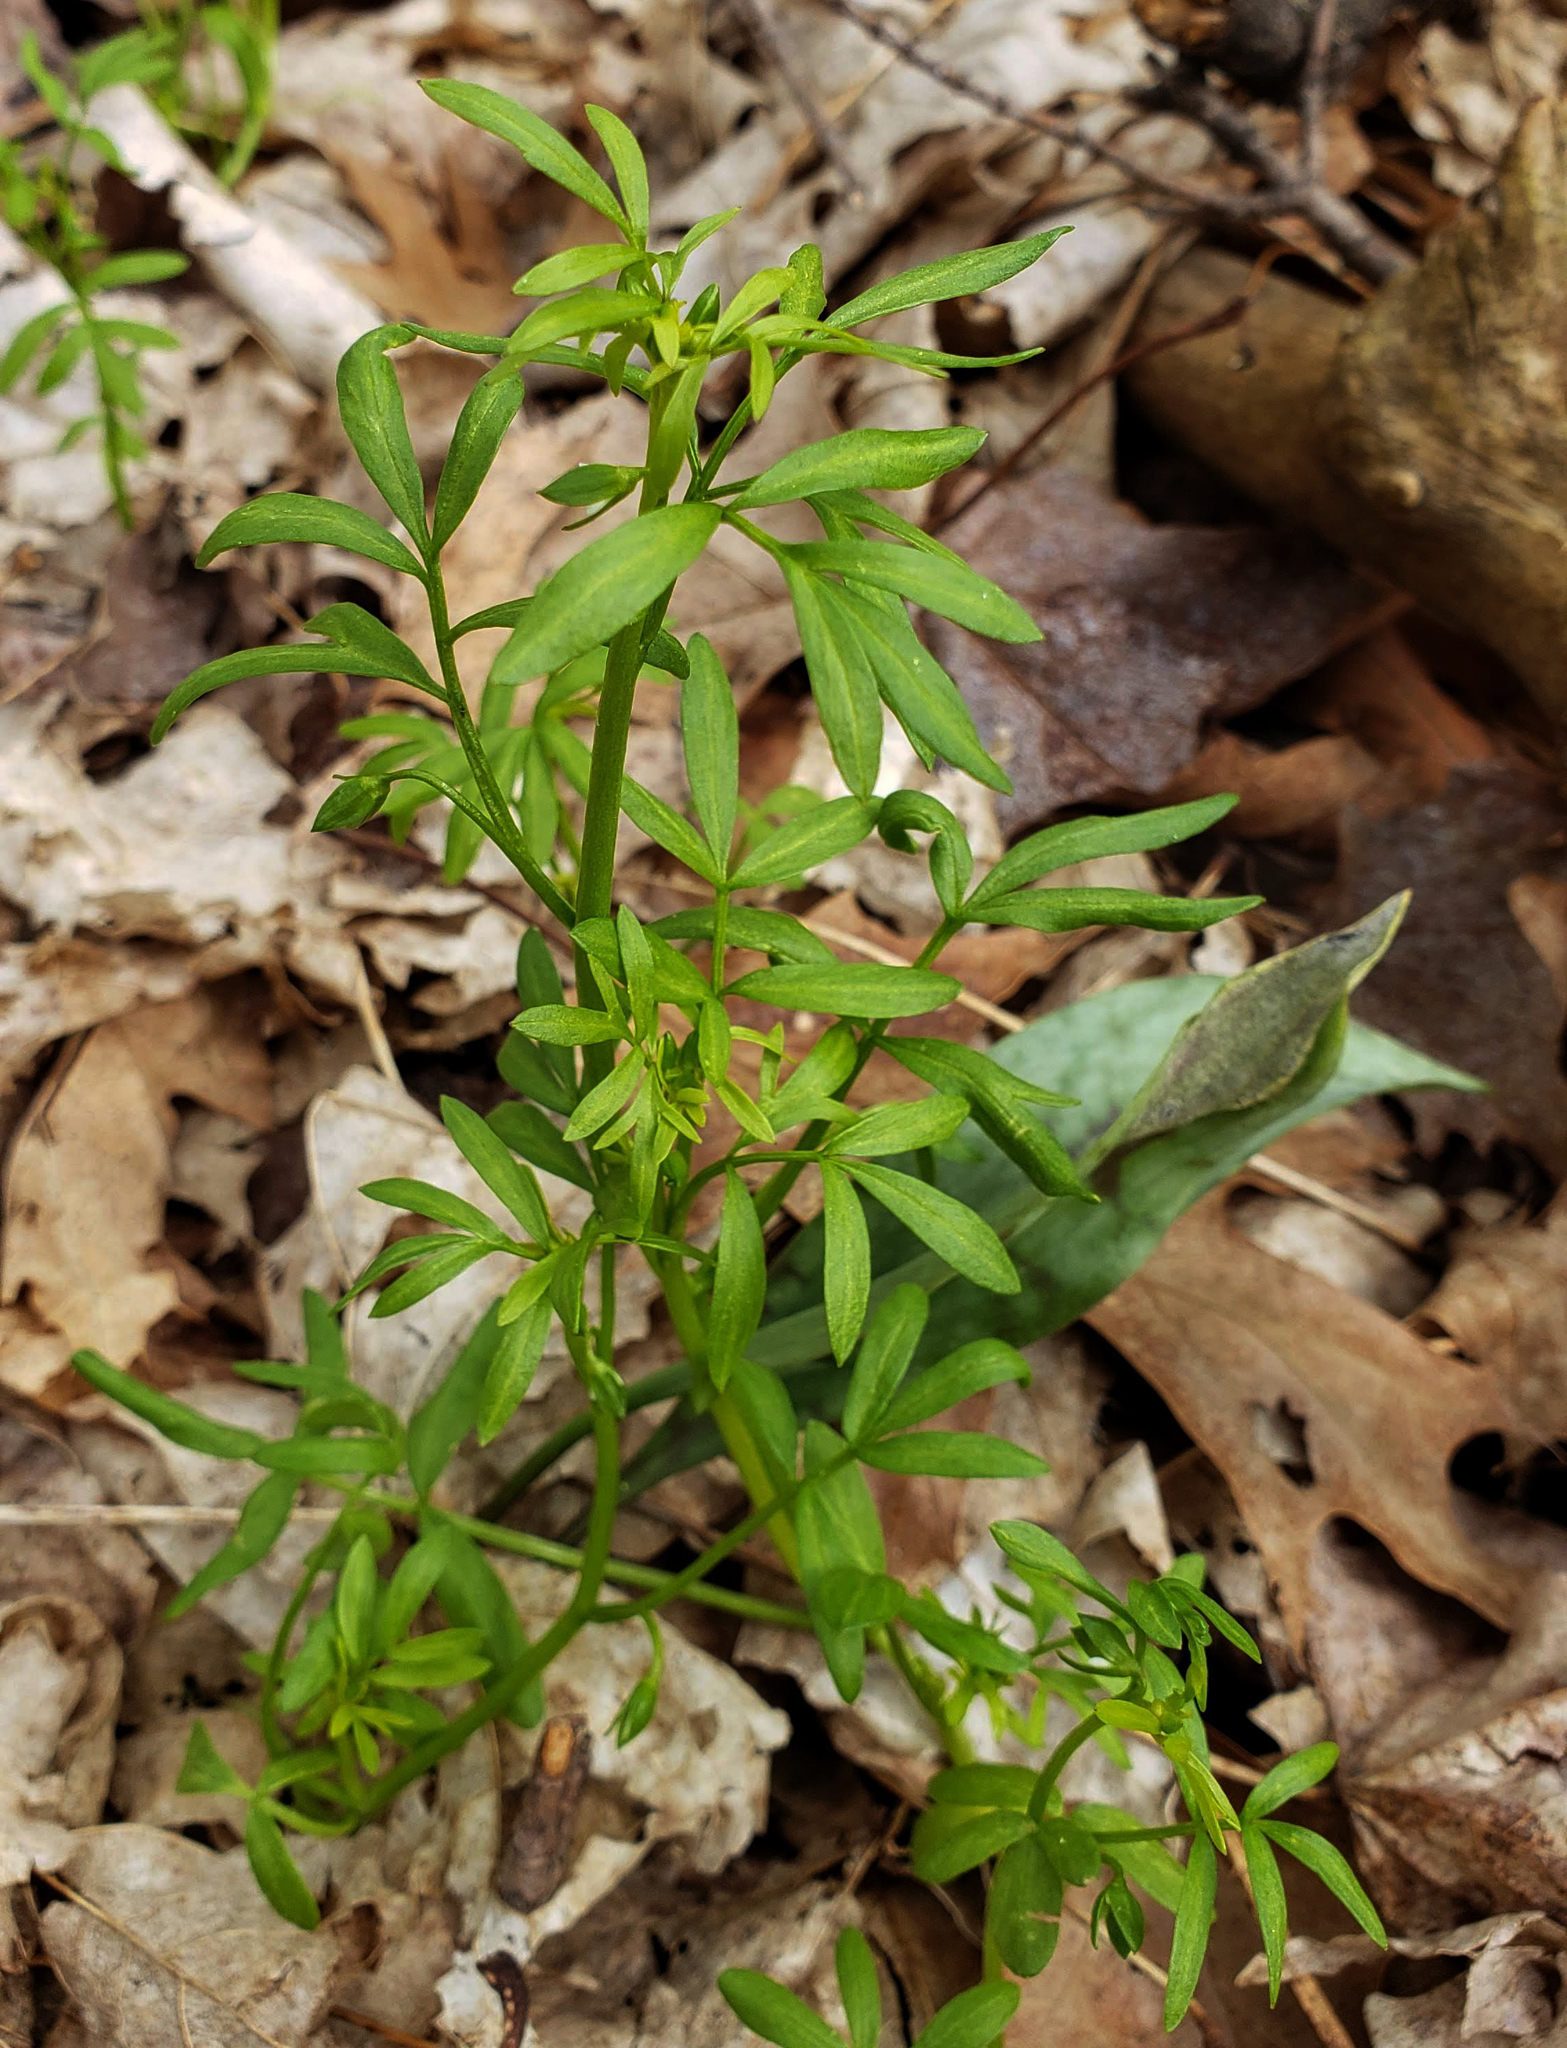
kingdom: Plantae
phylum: Tracheophyta
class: Magnoliopsida
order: Brassicales
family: Limnanthaceae
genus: Floerkea
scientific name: Floerkea proserpinacoides
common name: False mermaid
